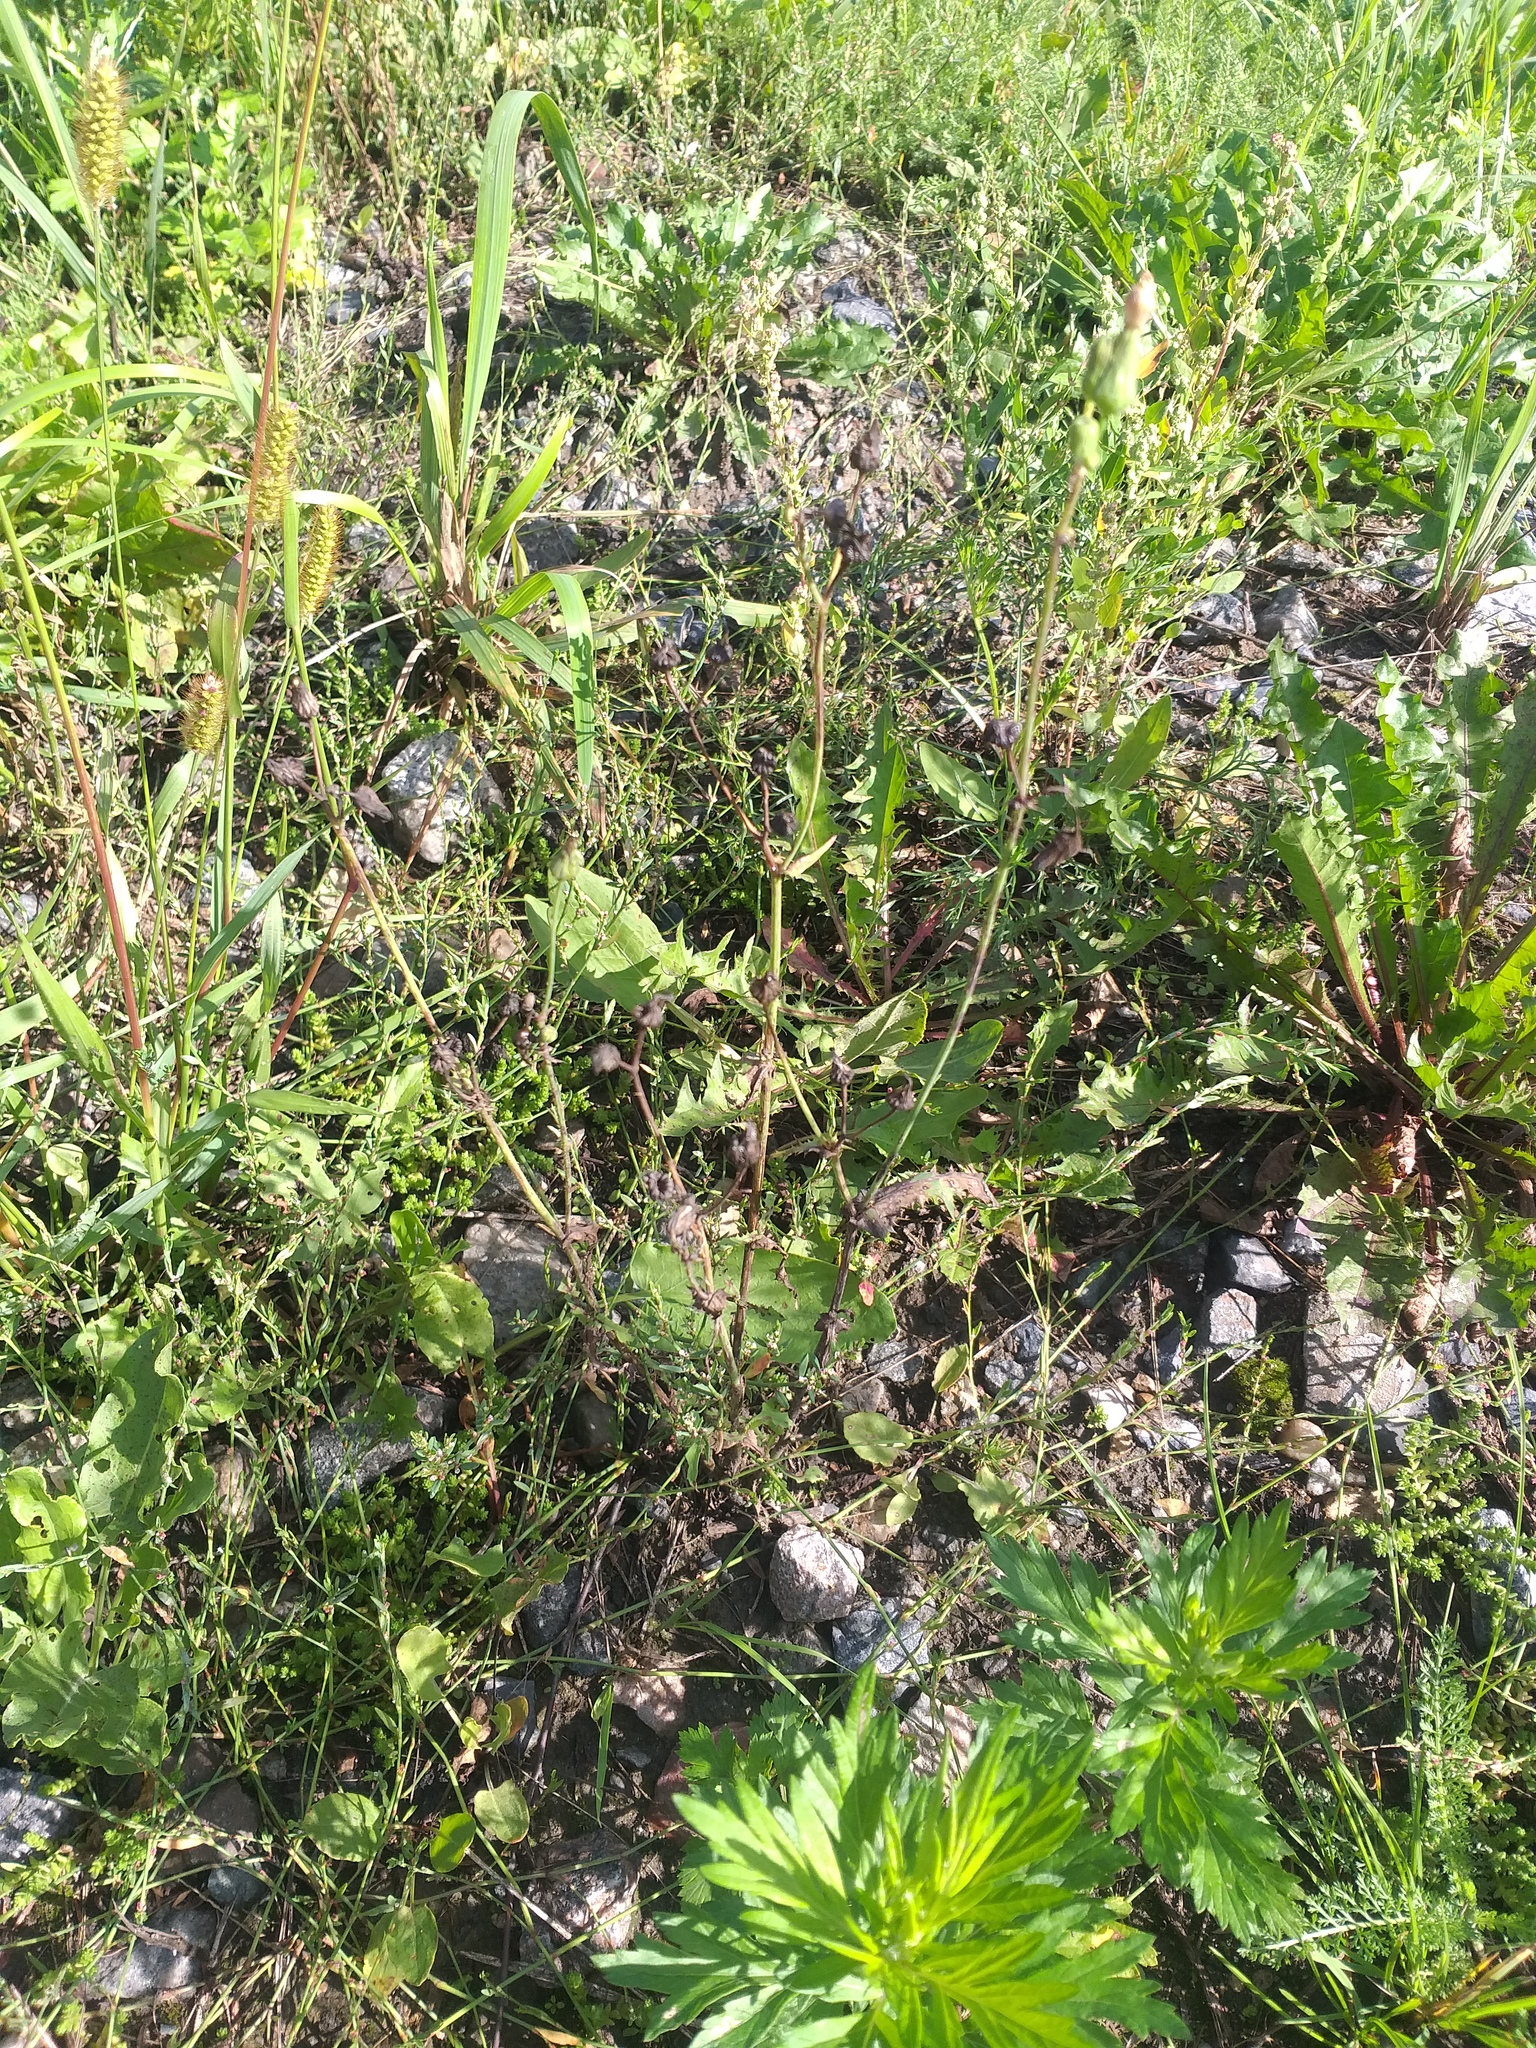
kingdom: Plantae
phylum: Tracheophyta
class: Magnoliopsida
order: Asterales
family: Asteraceae
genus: Sonchus
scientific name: Sonchus oleraceus
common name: Common sowthistle
